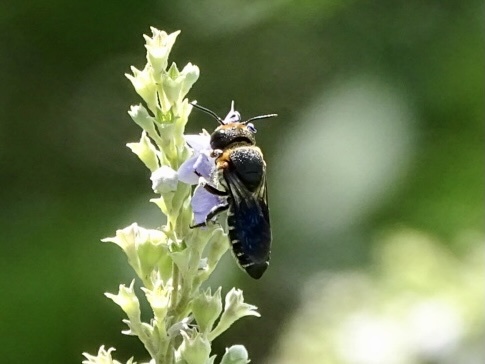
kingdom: Animalia
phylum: Arthropoda
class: Insecta
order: Hymenoptera
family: Megachilidae
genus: Megachile
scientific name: Megachile faceta
